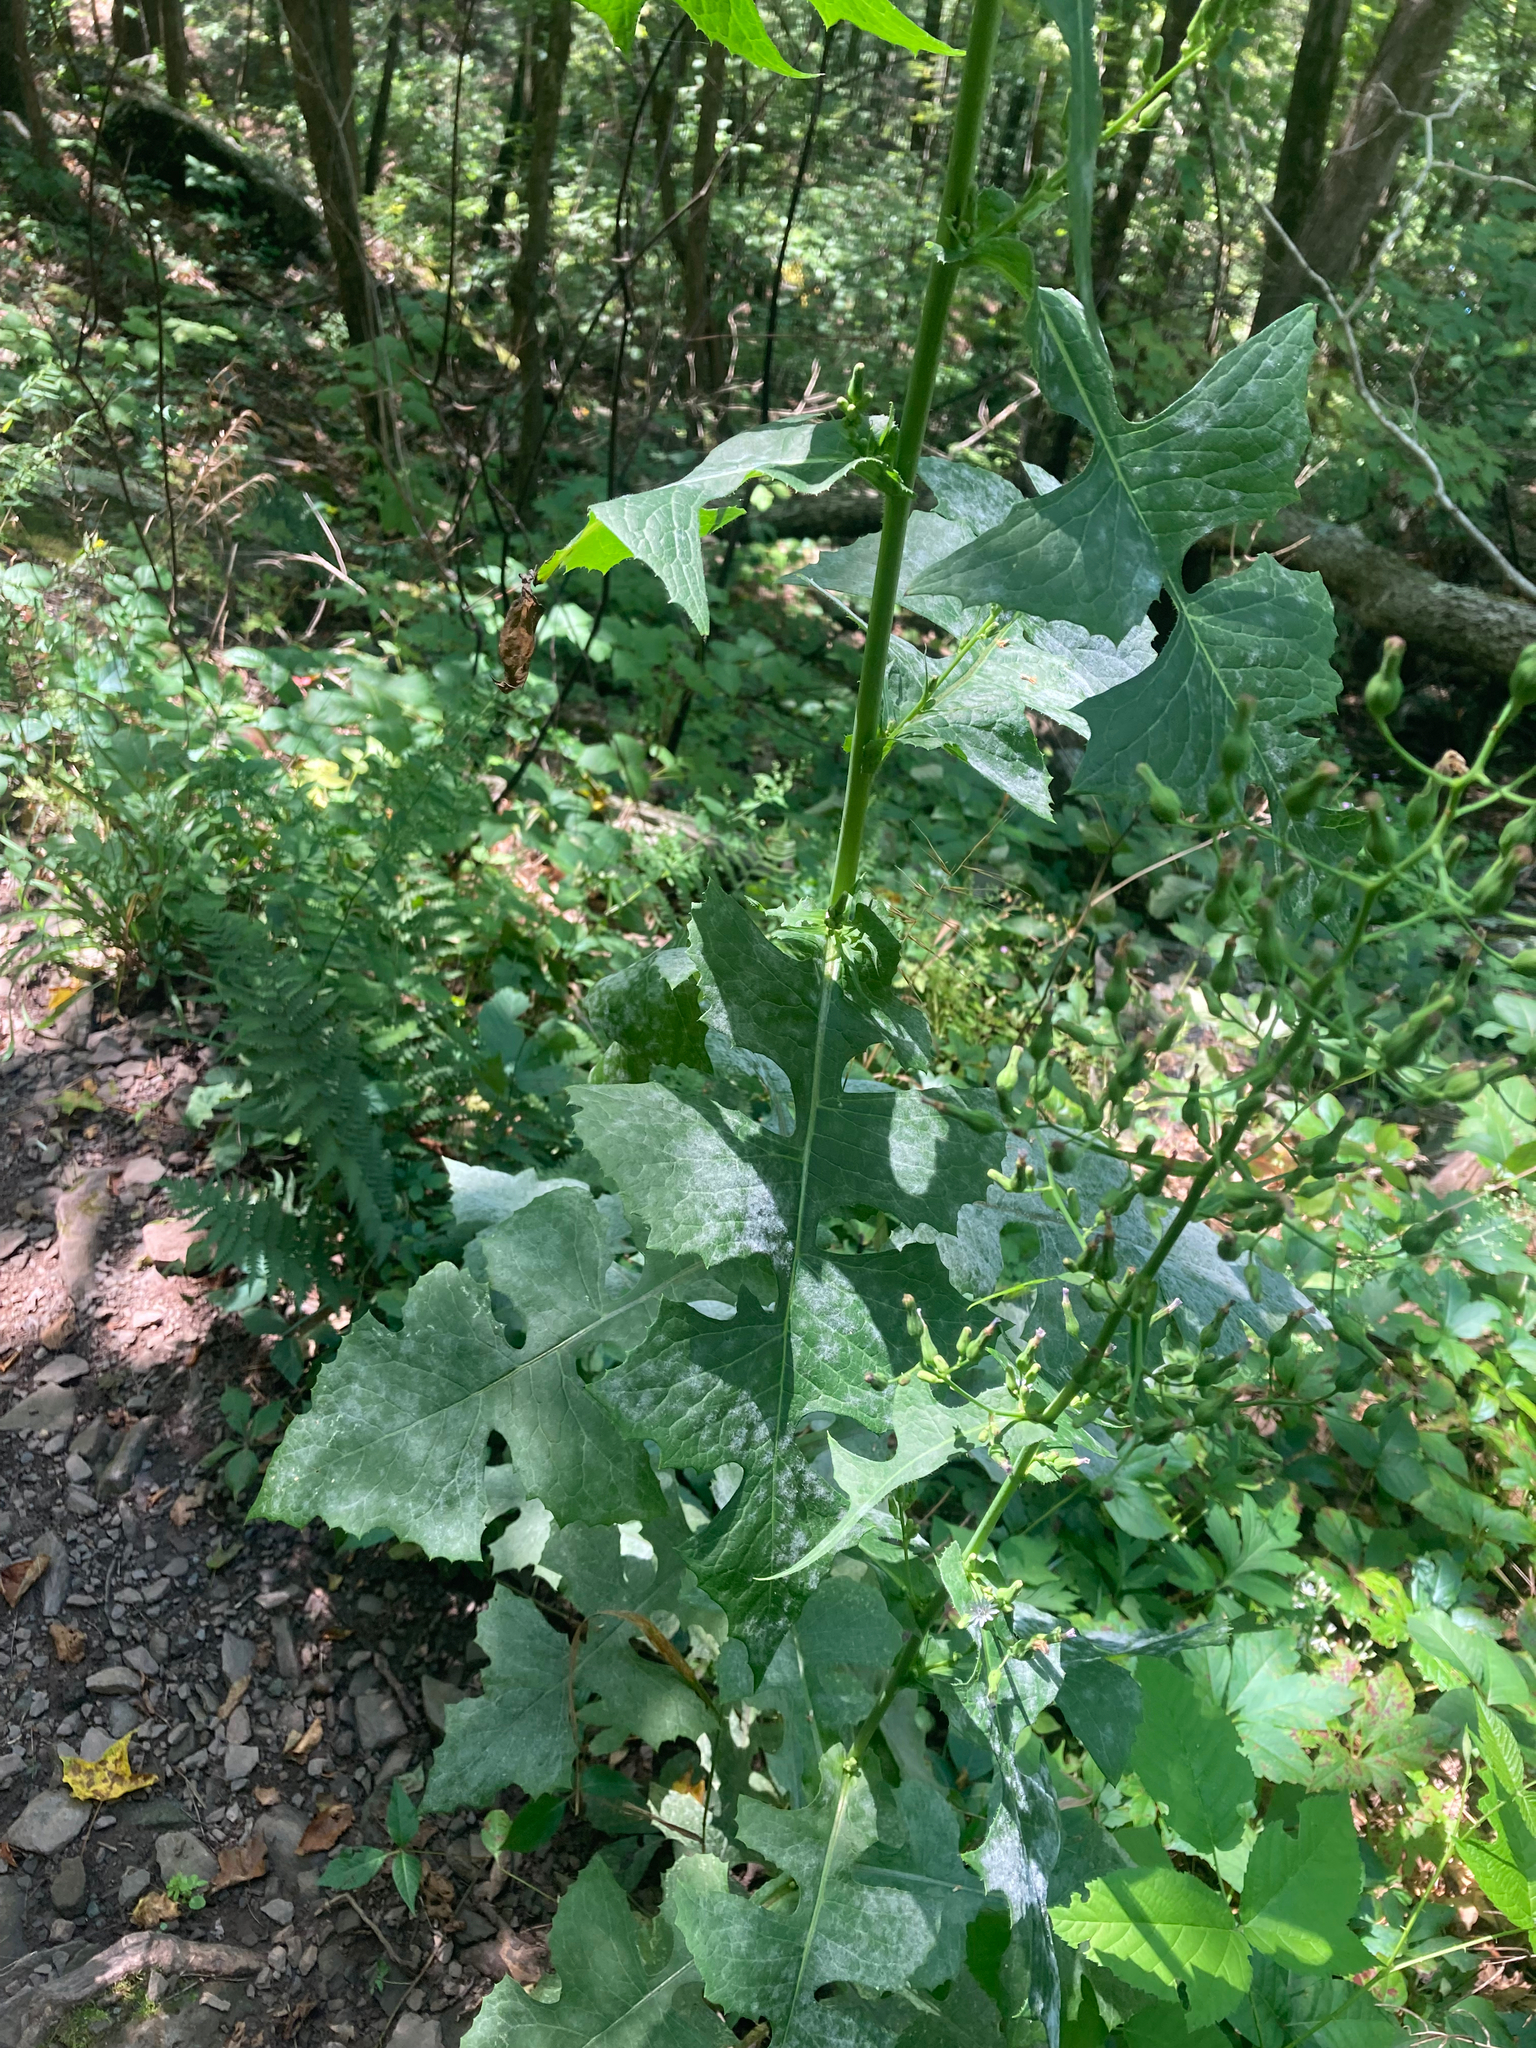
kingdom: Plantae
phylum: Tracheophyta
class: Magnoliopsida
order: Asterales
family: Asteraceae
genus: Lactuca
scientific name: Lactuca biennis
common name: Blue wood lettuce
